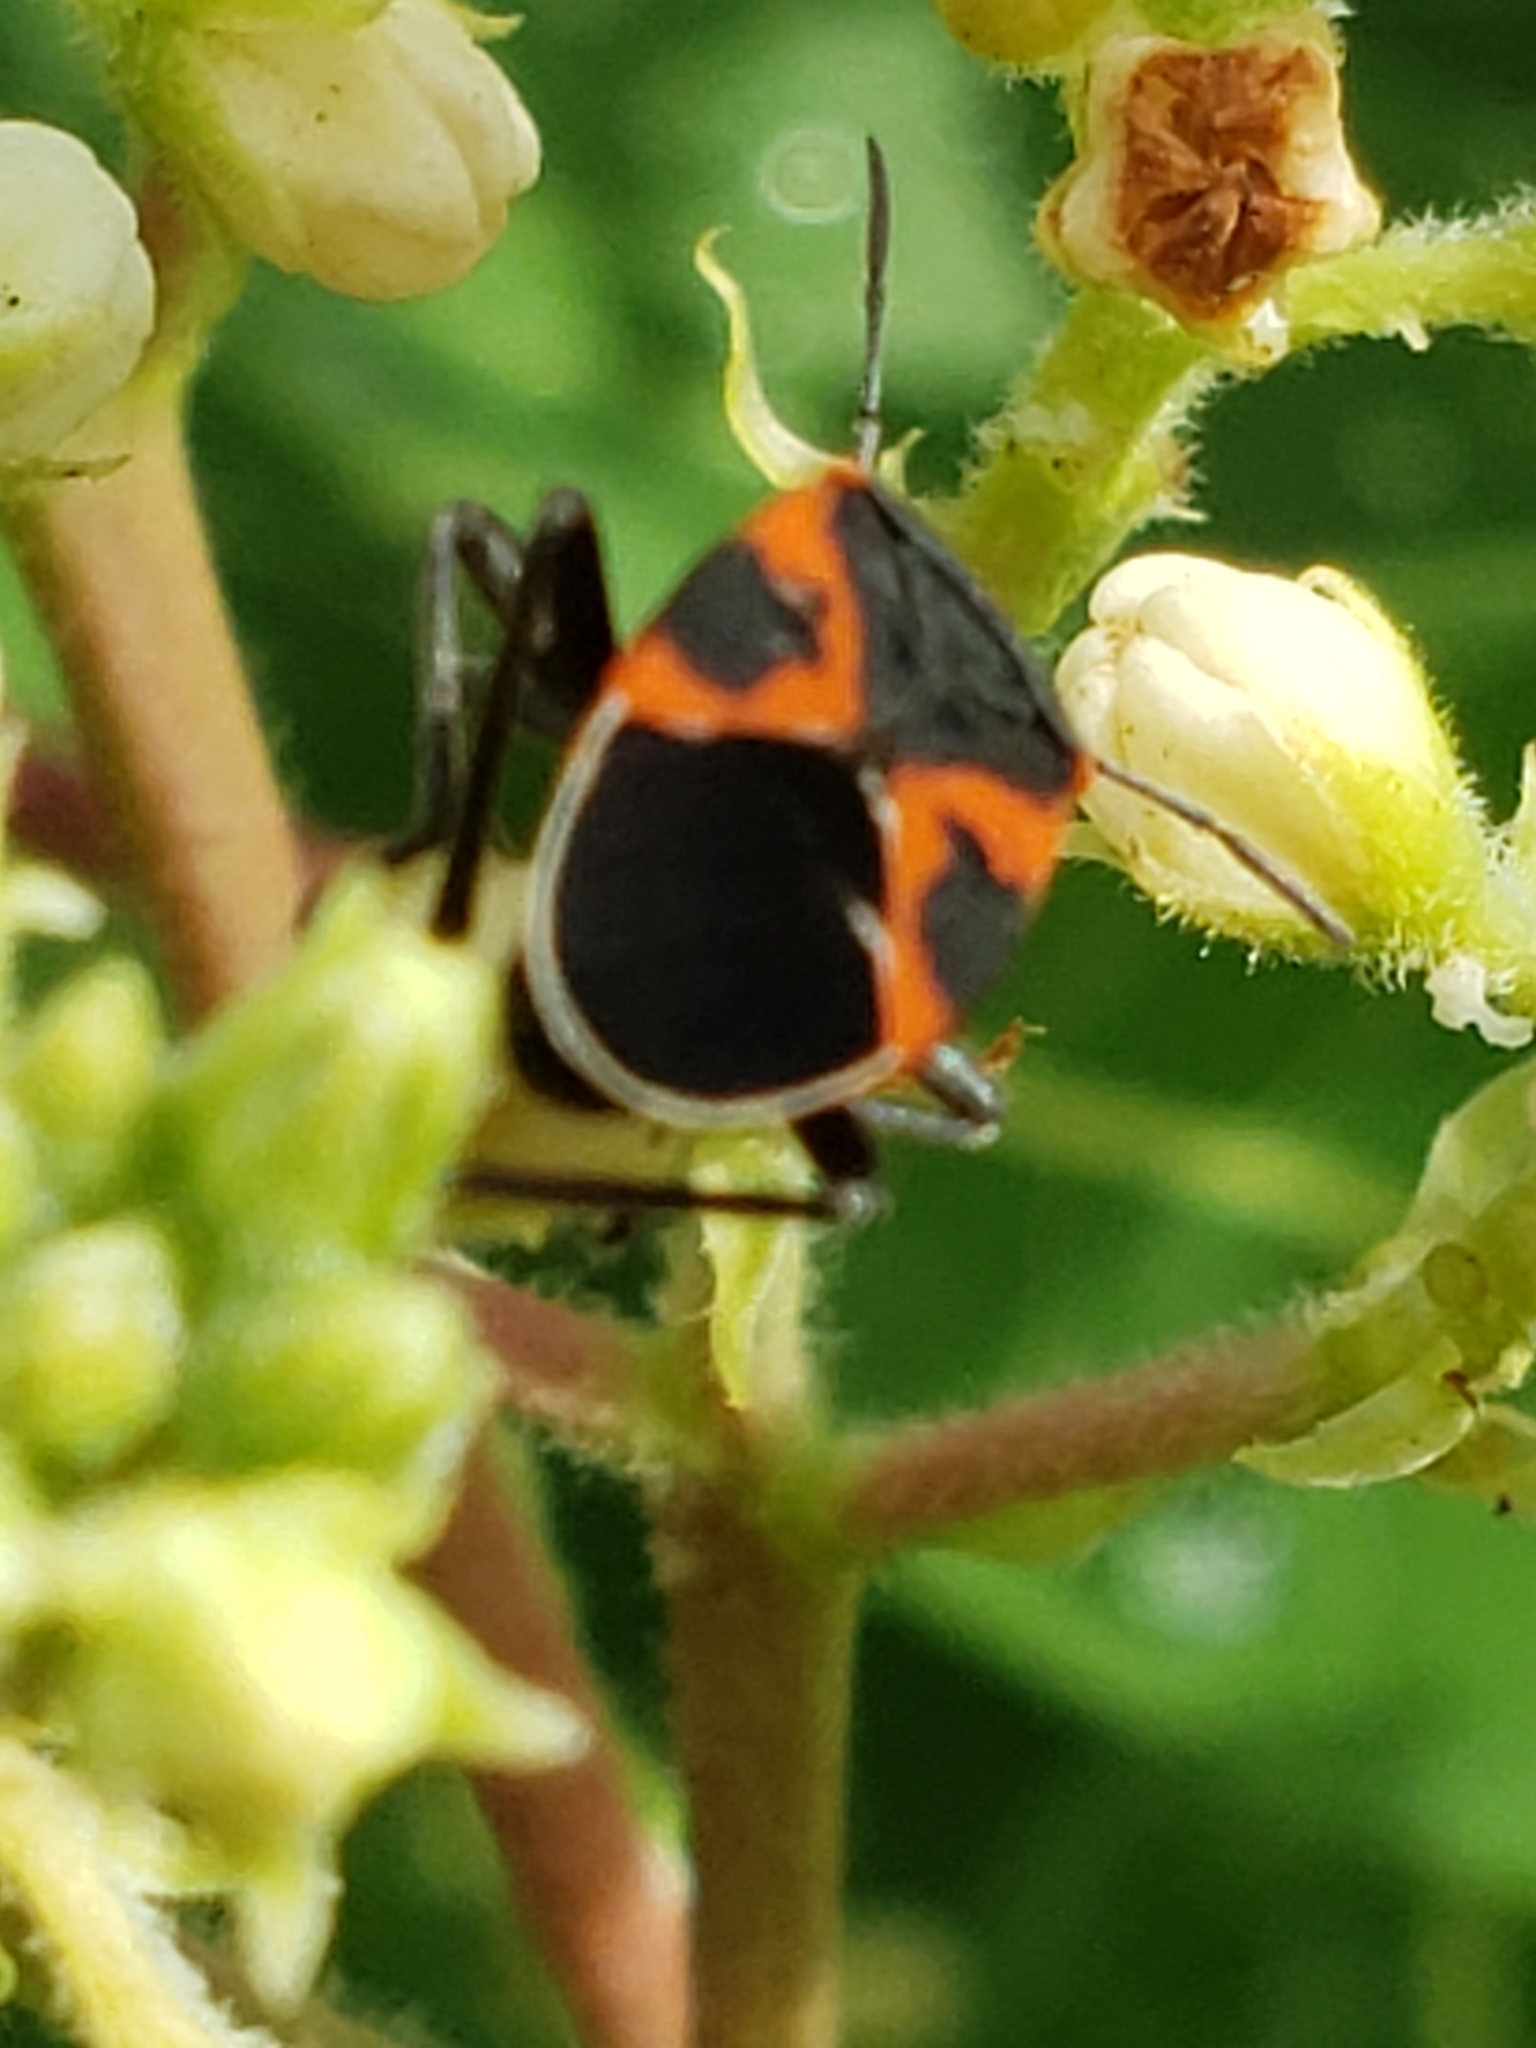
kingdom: Animalia
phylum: Arthropoda
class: Insecta
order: Hemiptera
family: Lygaeidae
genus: Lygaeus
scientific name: Lygaeus kalmii
